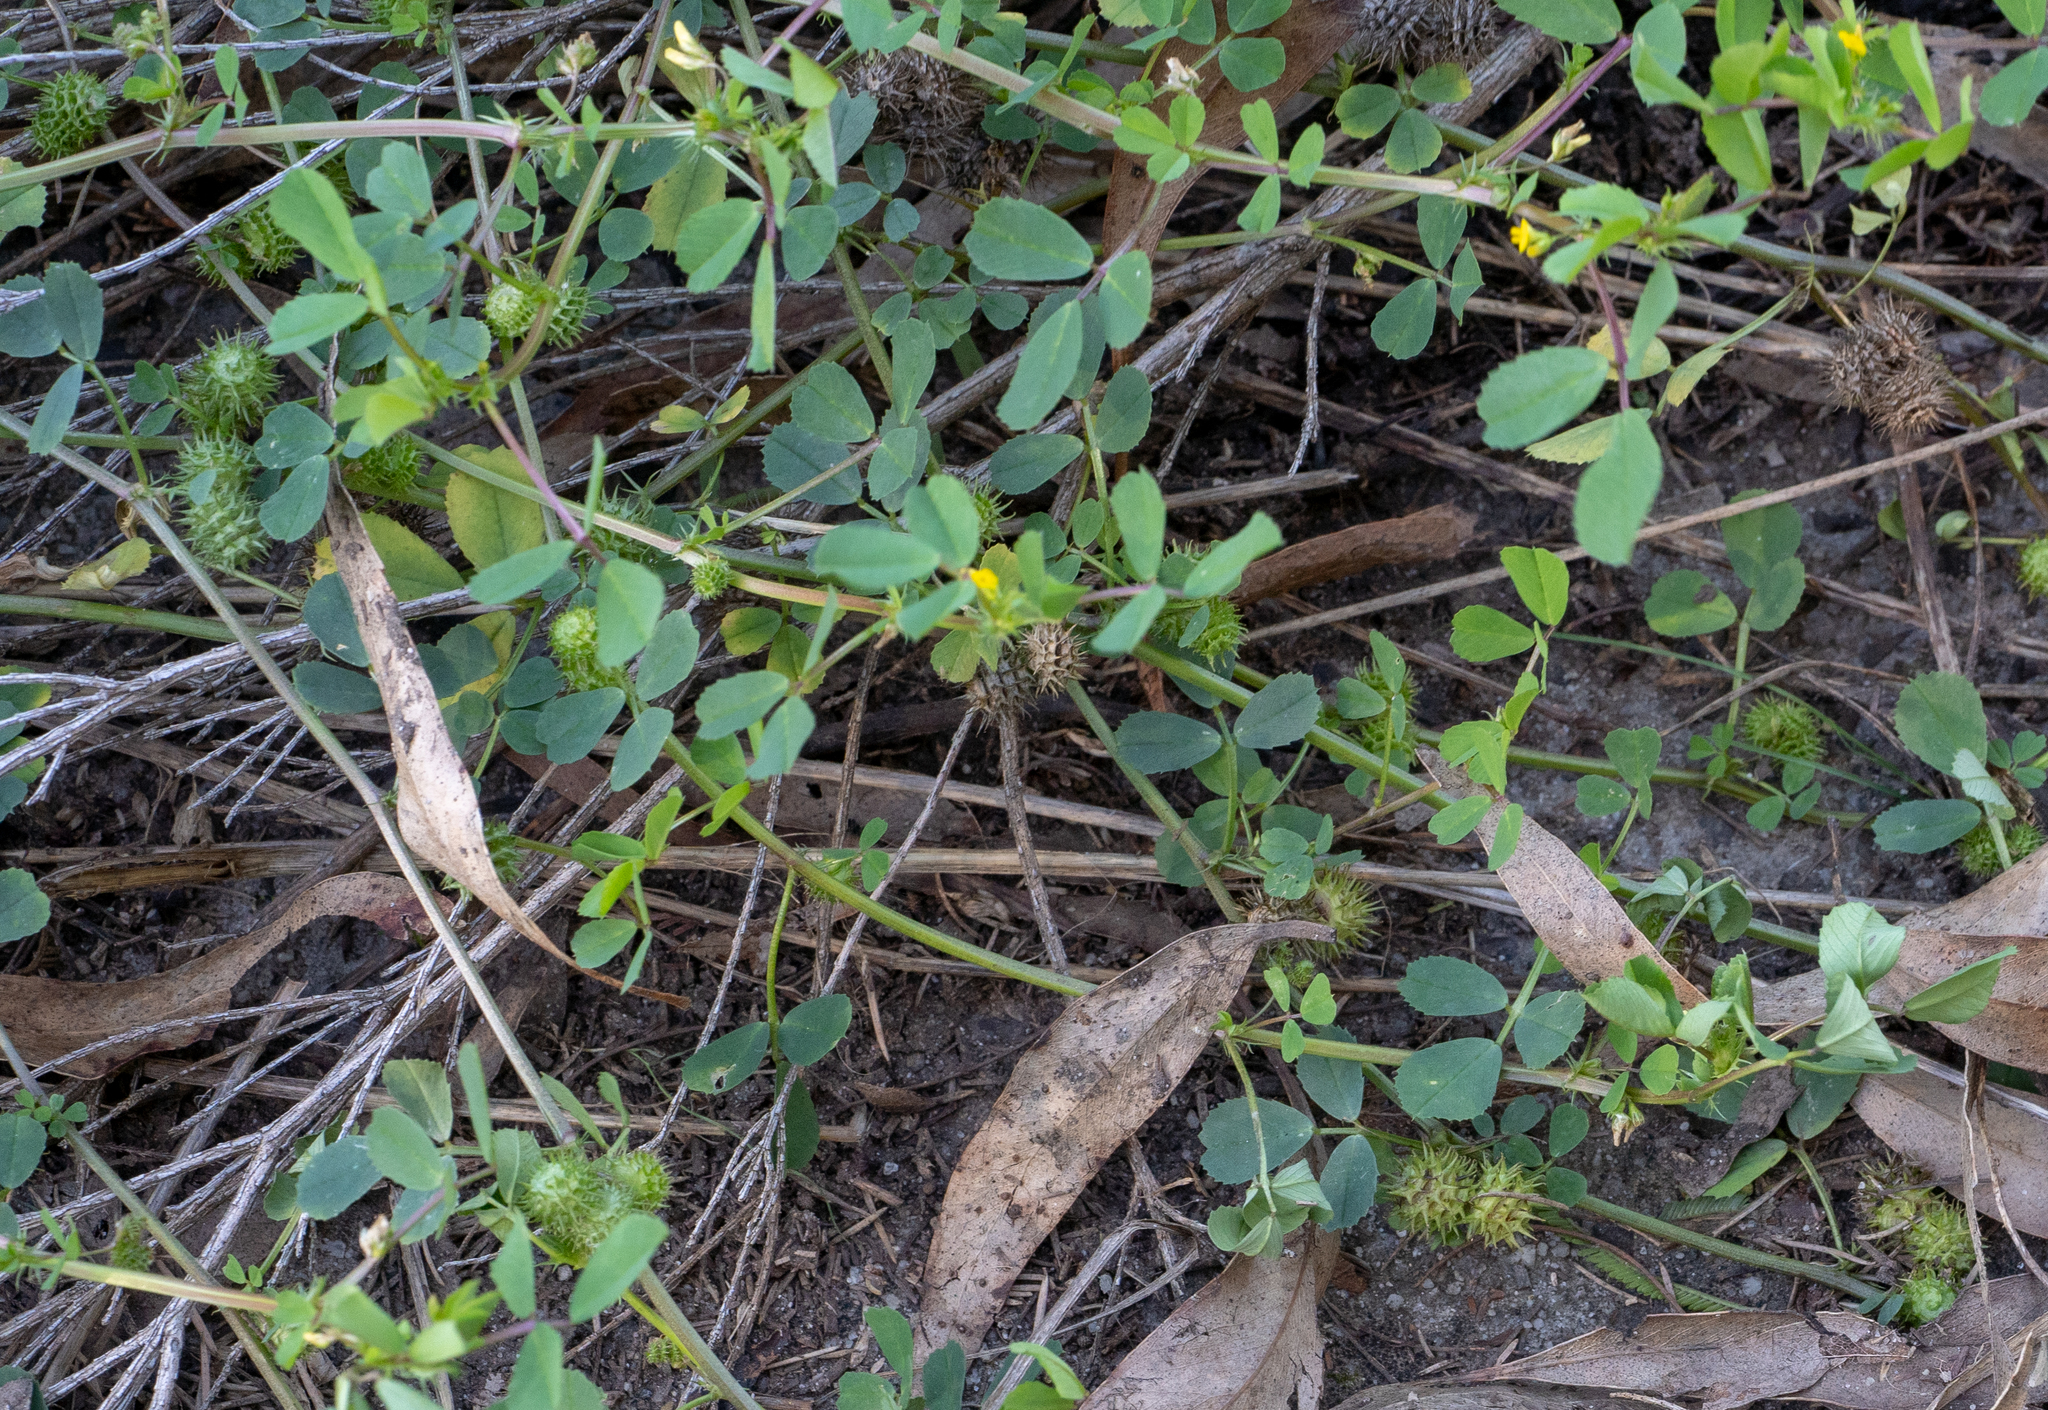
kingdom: Plantae
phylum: Tracheophyta
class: Magnoliopsida
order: Fabales
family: Fabaceae
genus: Medicago
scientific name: Medicago polymorpha
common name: Burclover
